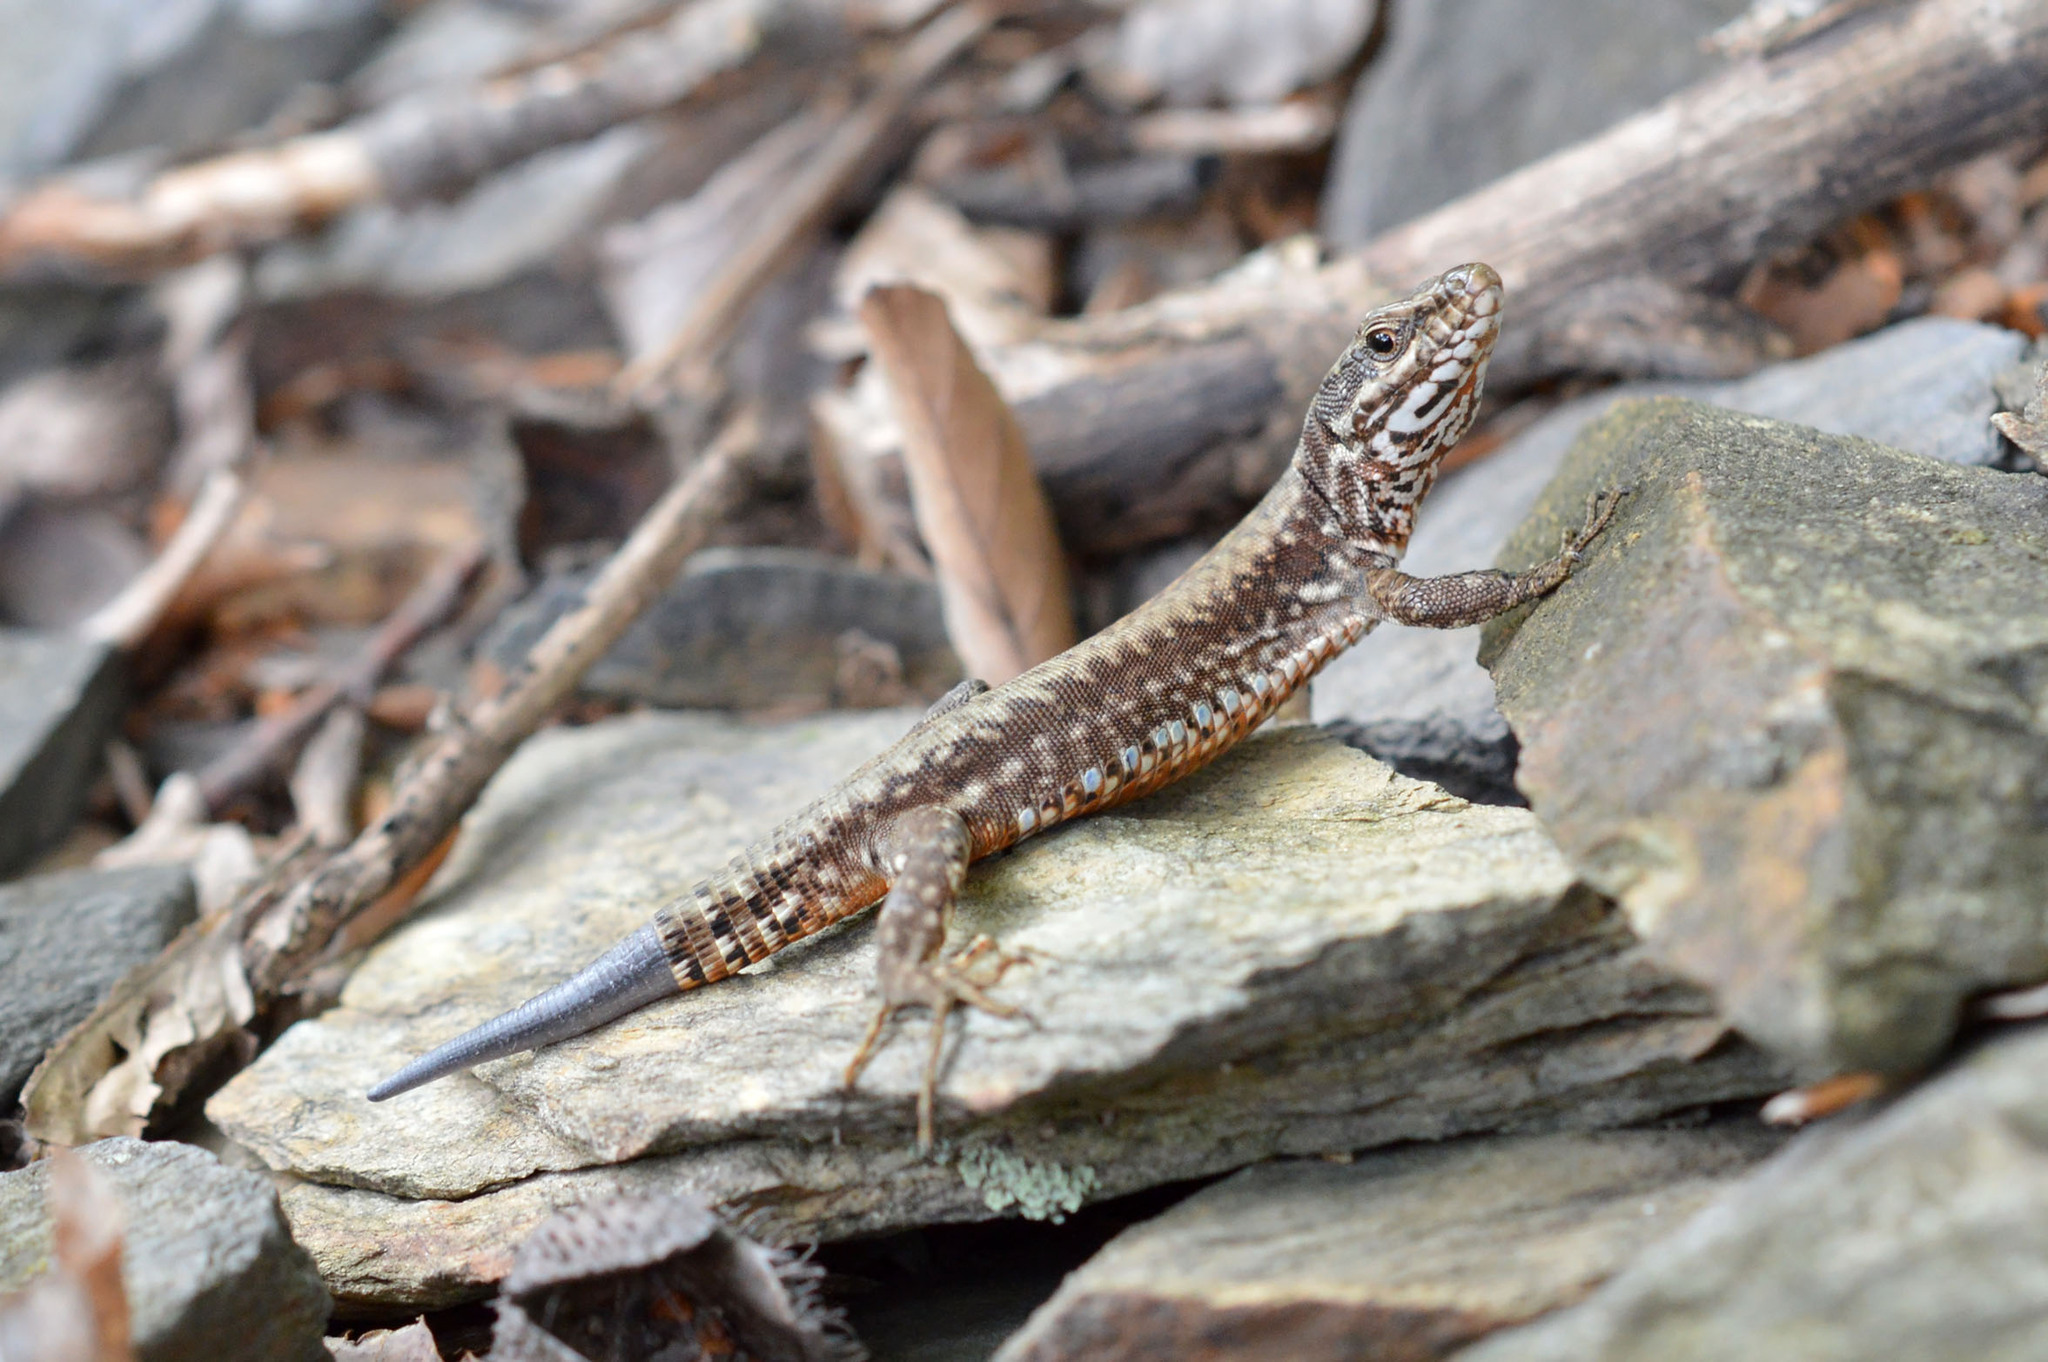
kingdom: Animalia
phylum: Chordata
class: Squamata
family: Lacertidae
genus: Podarcis
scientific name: Podarcis muralis
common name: Common wall lizard
